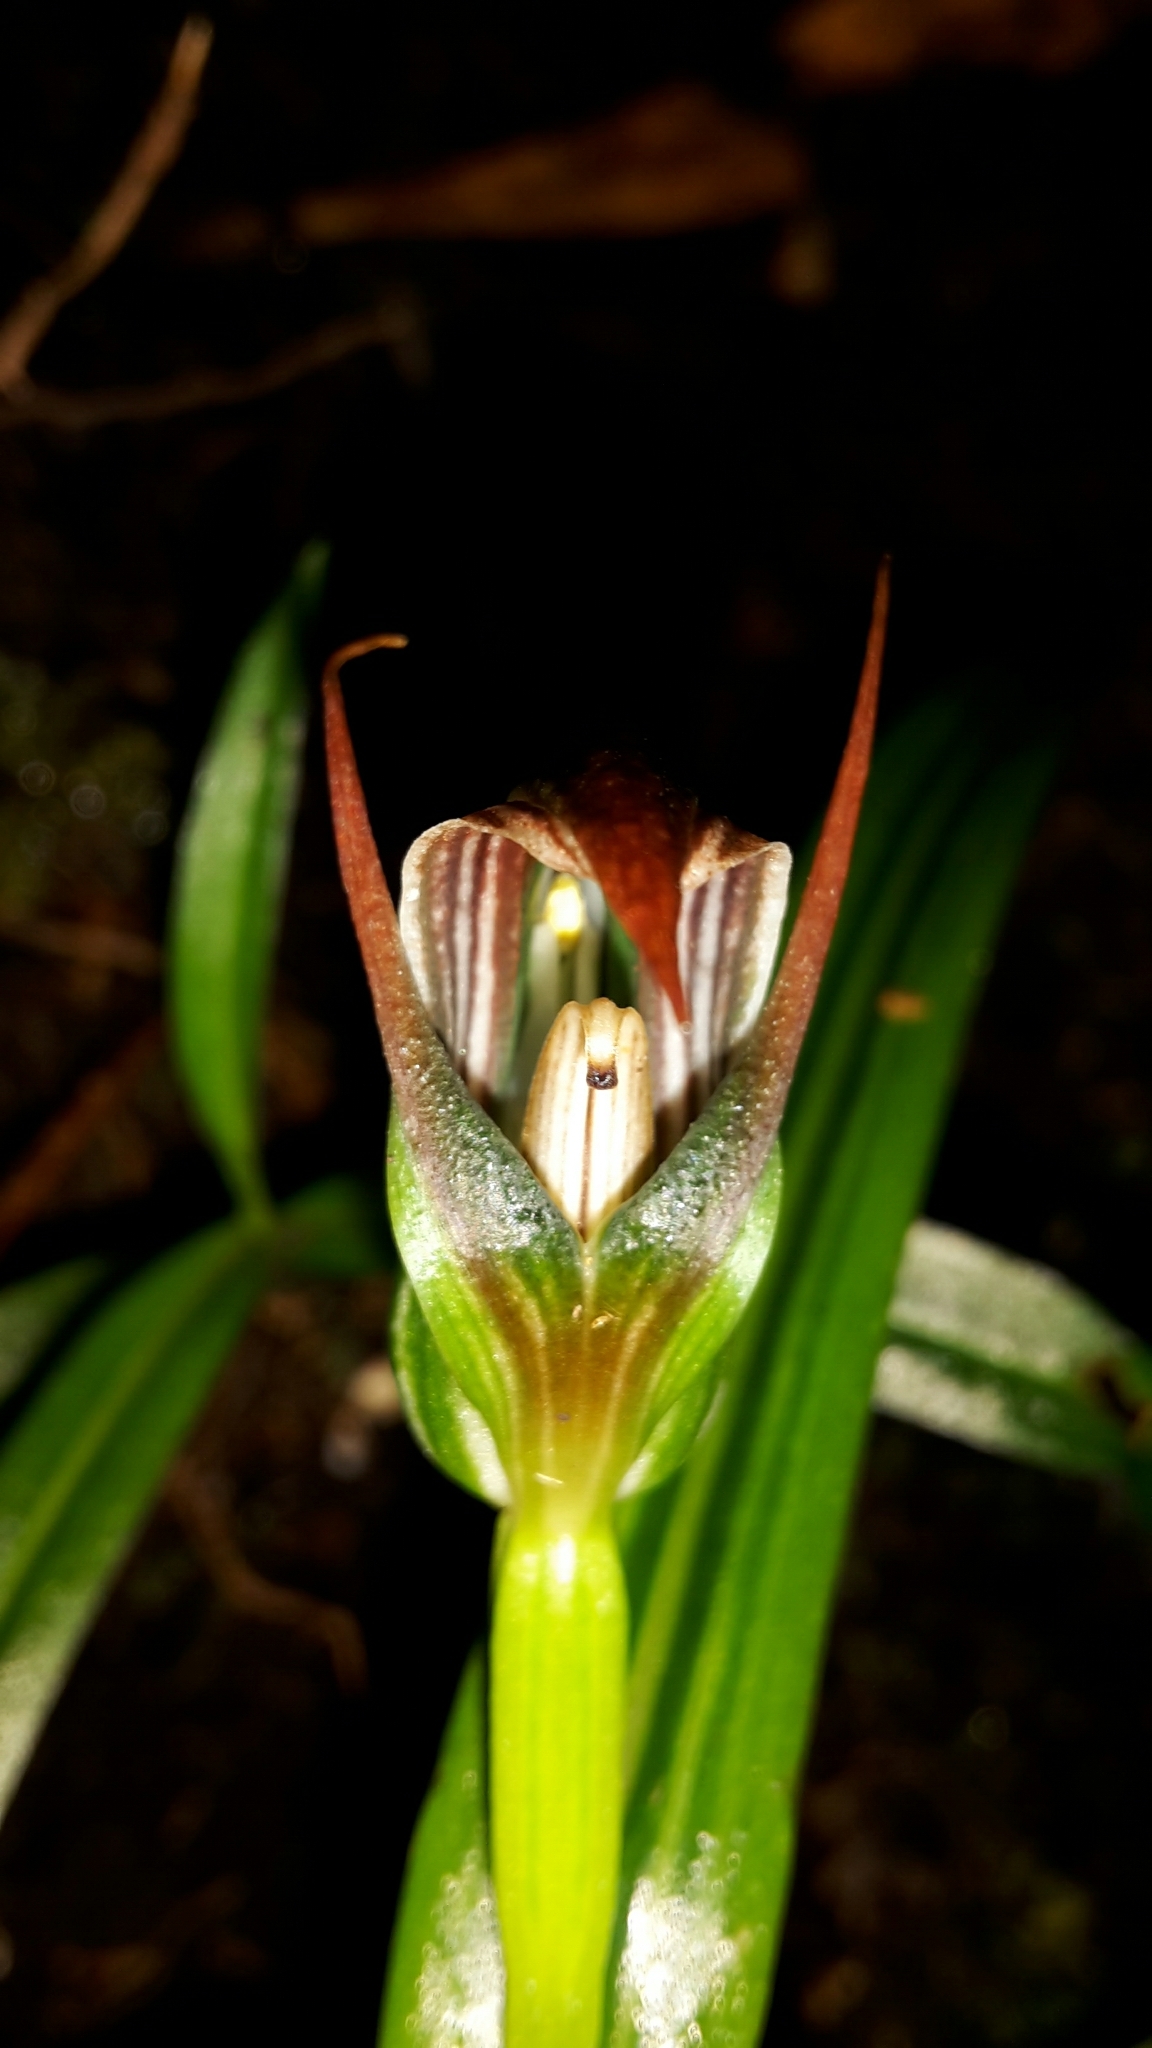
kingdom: Plantae
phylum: Tracheophyta
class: Liliopsida
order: Asparagales
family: Orchidaceae
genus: Pterostylis
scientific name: Pterostylis irsoniana
